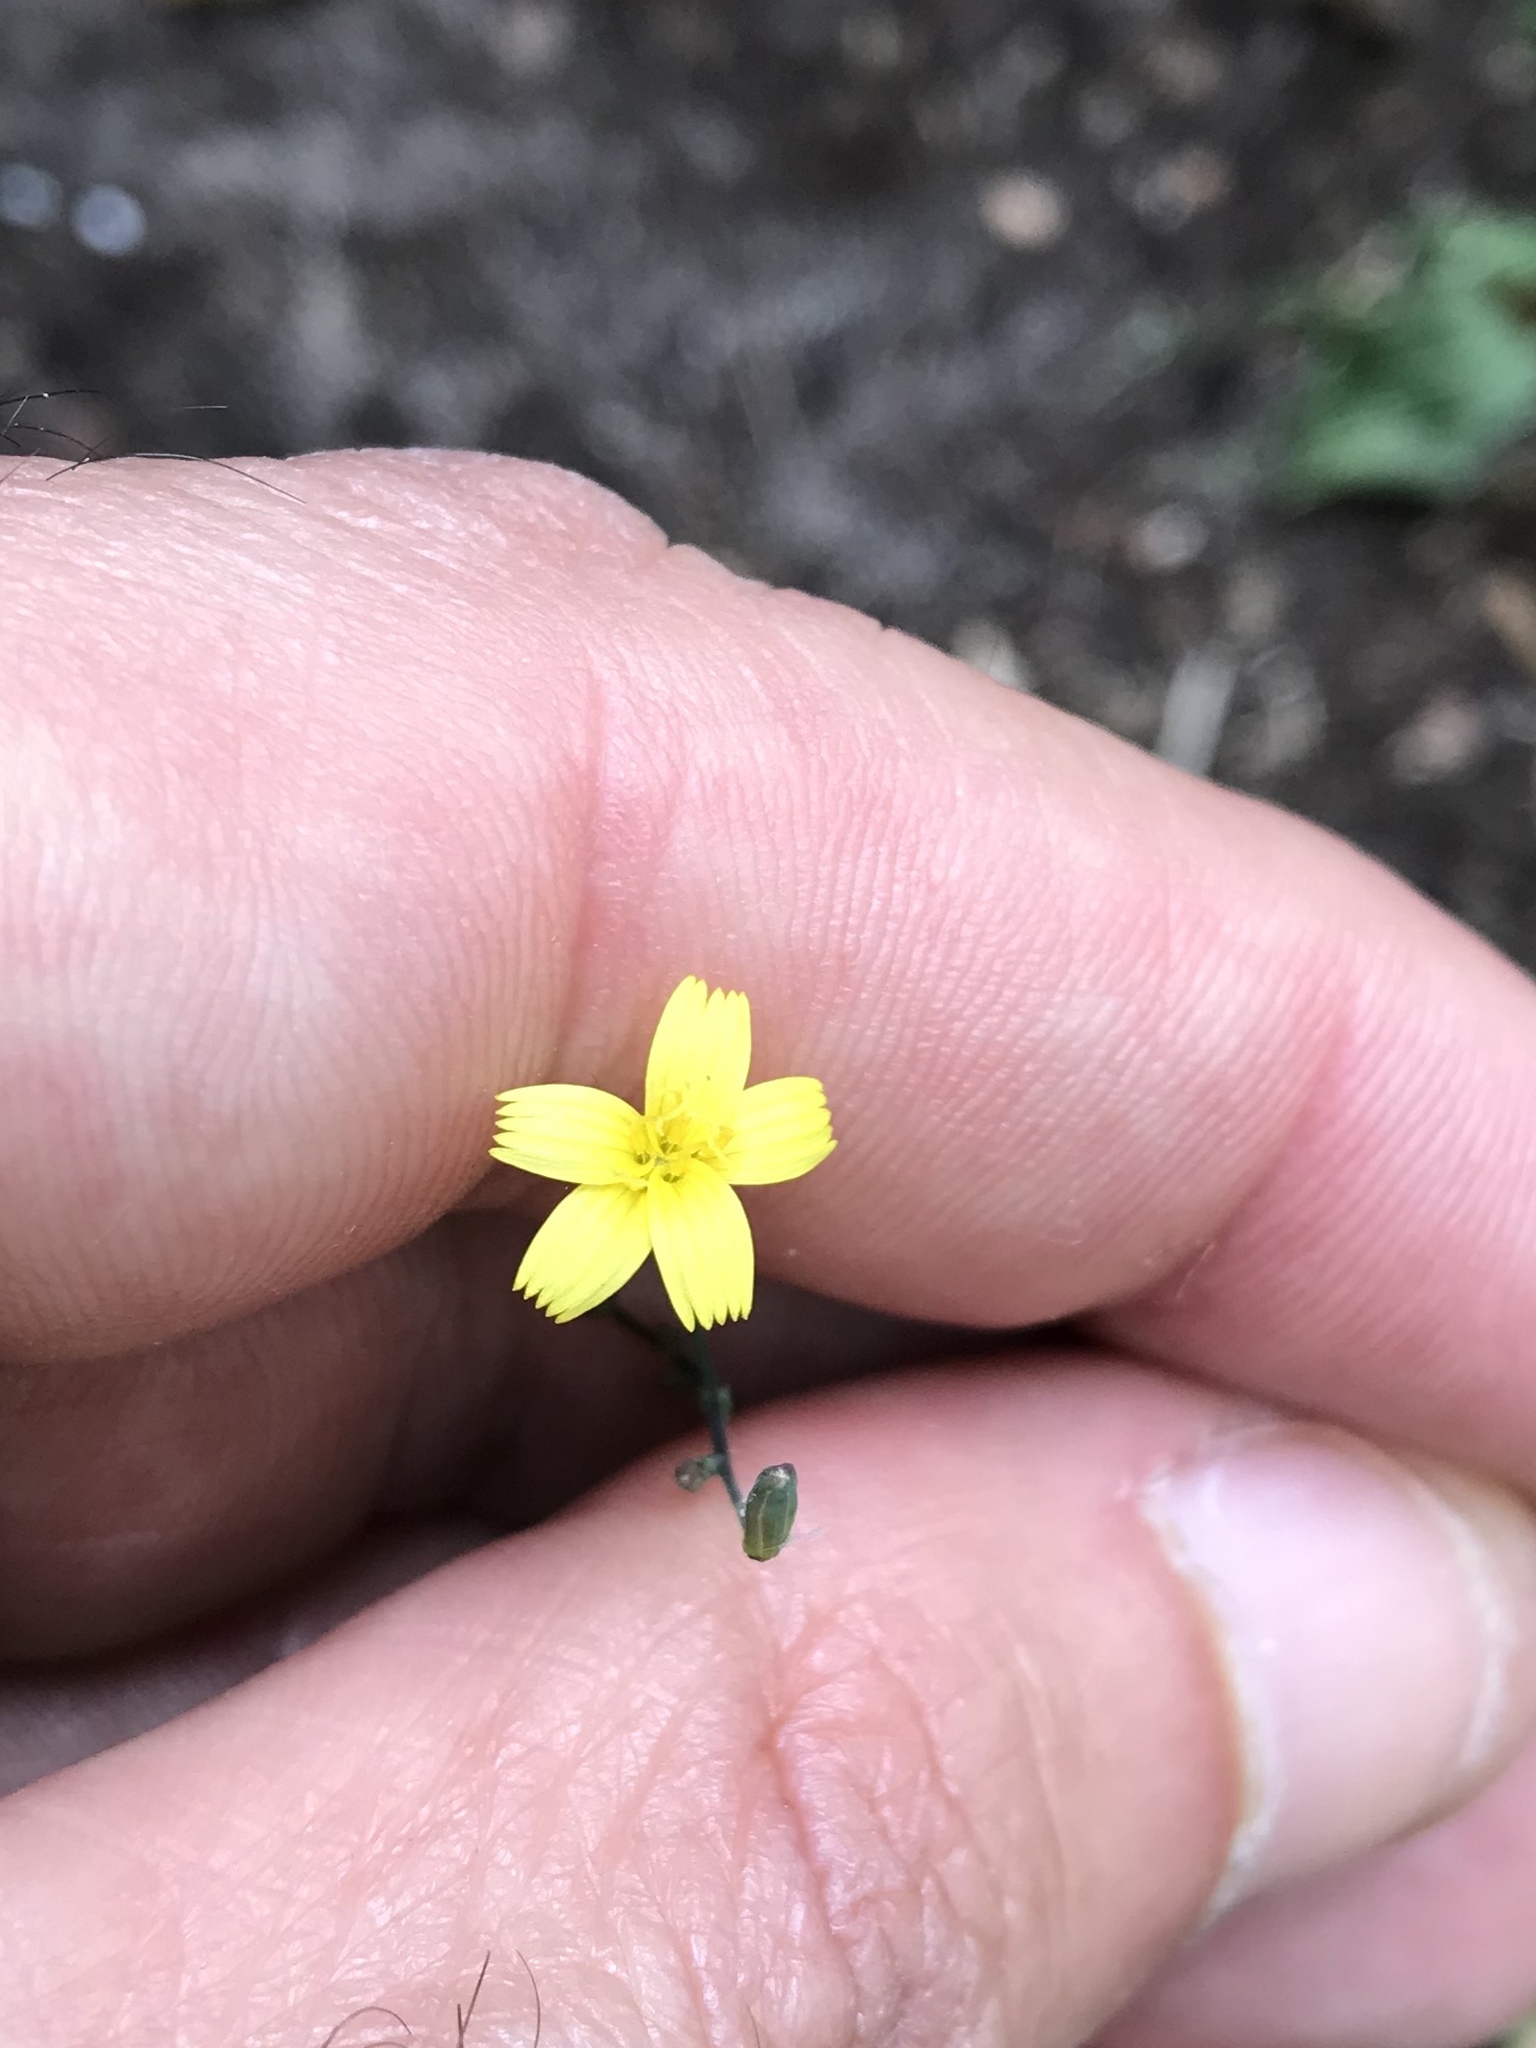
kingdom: Plantae
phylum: Tracheophyta
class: Magnoliopsida
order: Asterales
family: Asteraceae
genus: Mycelis
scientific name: Mycelis muralis
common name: Wall lettuce
